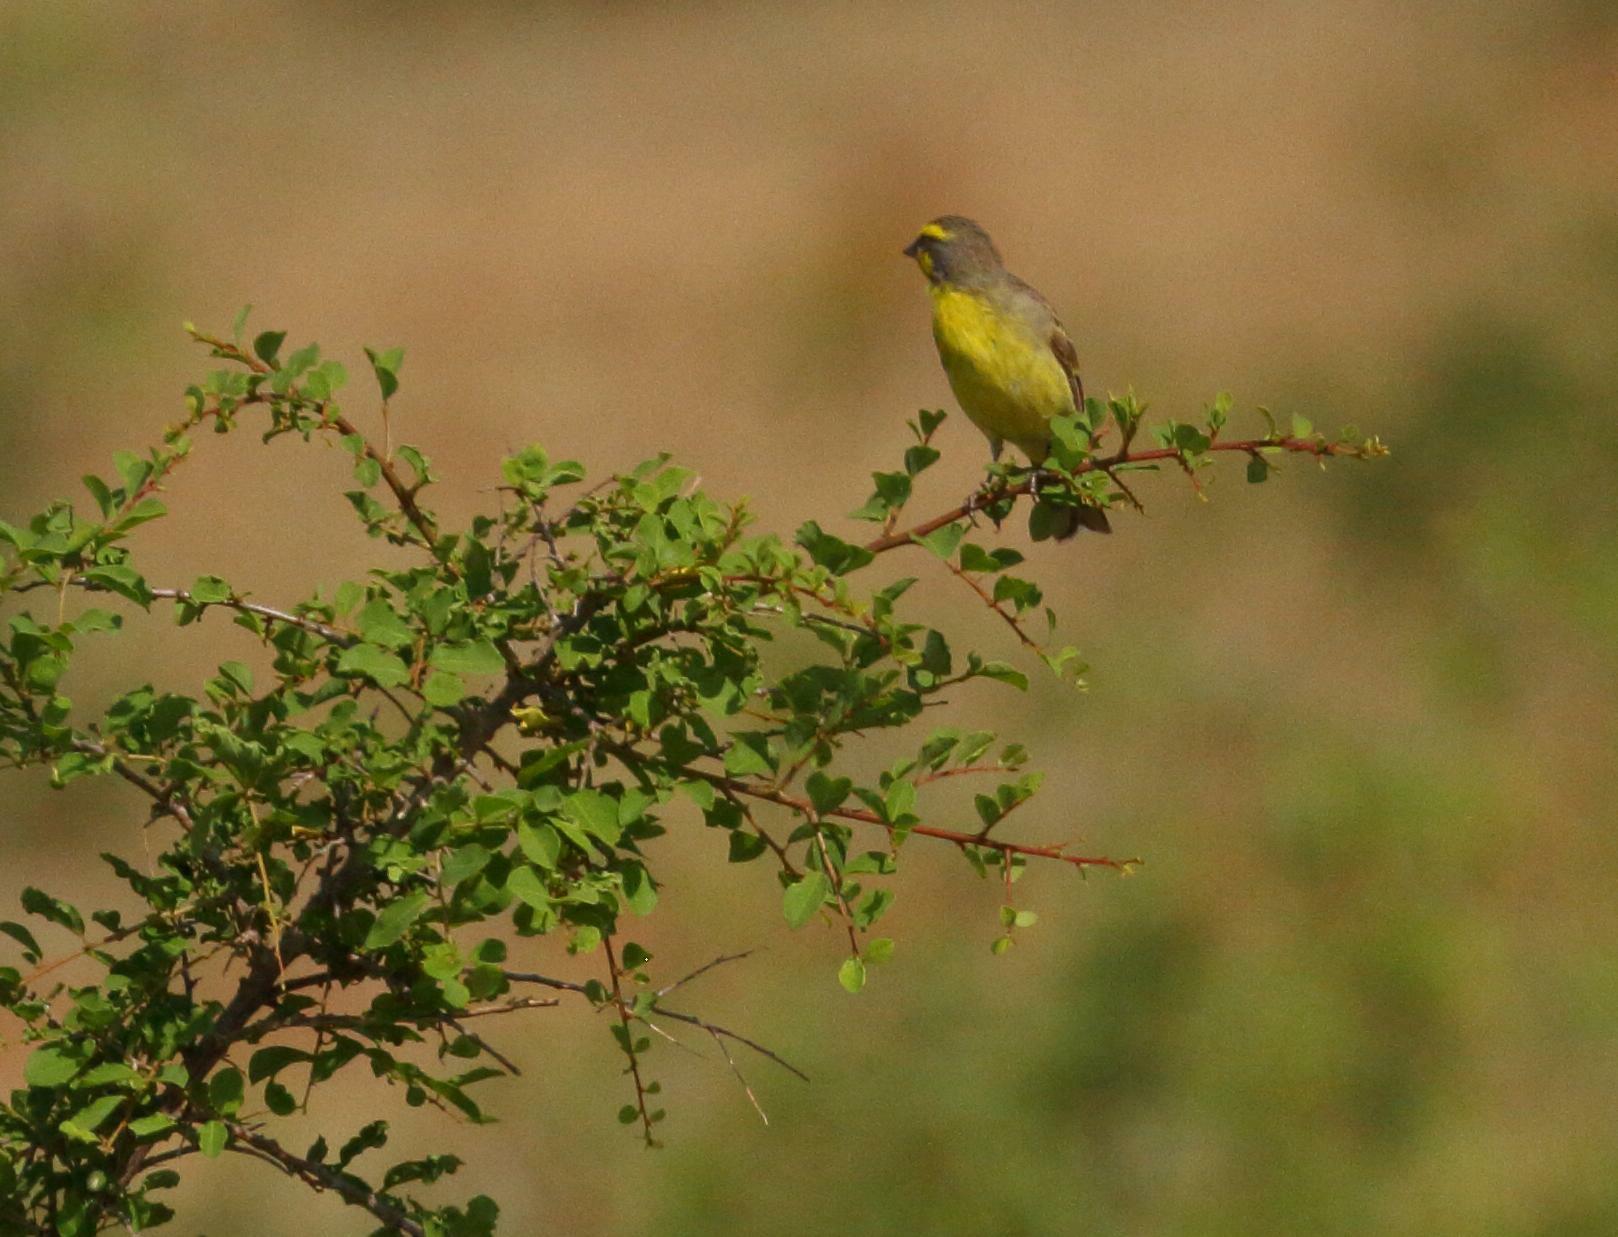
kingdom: Animalia
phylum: Chordata
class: Aves
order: Passeriformes
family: Fringillidae
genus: Crithagra
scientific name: Crithagra mozambica
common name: Yellow-fronted canary
